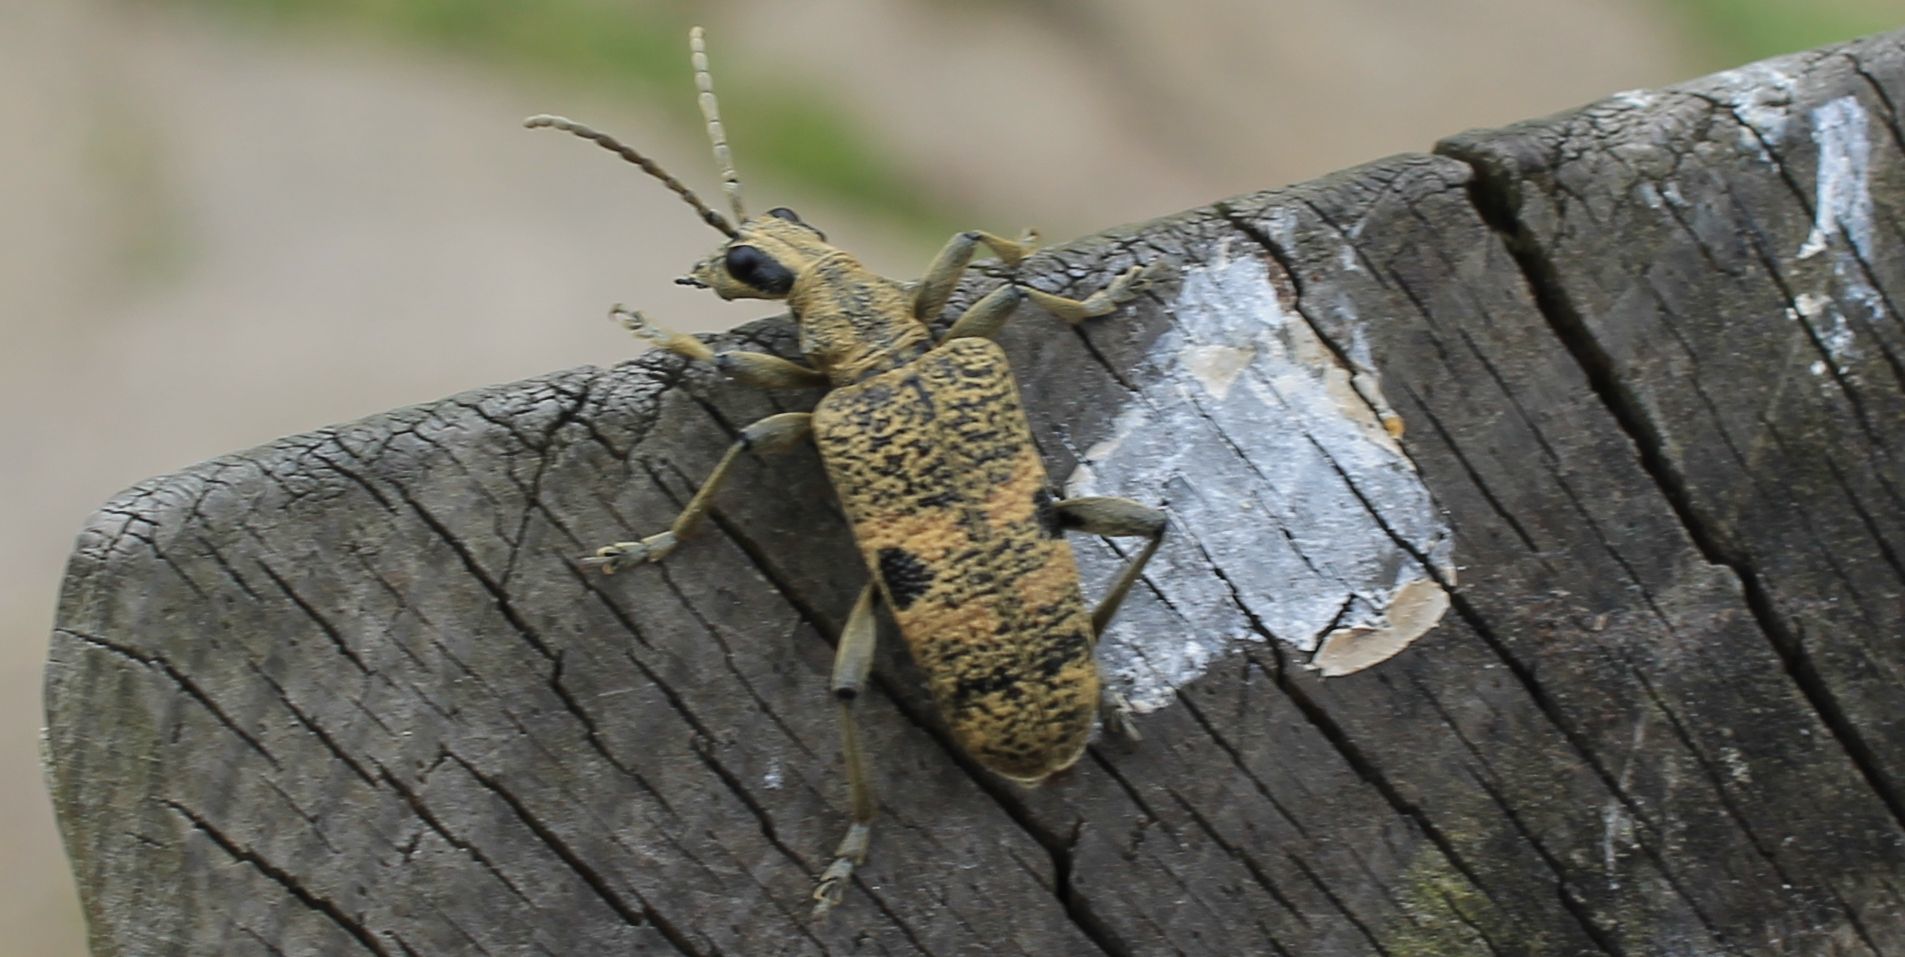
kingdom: Animalia
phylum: Arthropoda
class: Insecta
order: Coleoptera
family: Cerambycidae
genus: Rhagium
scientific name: Rhagium mordax
